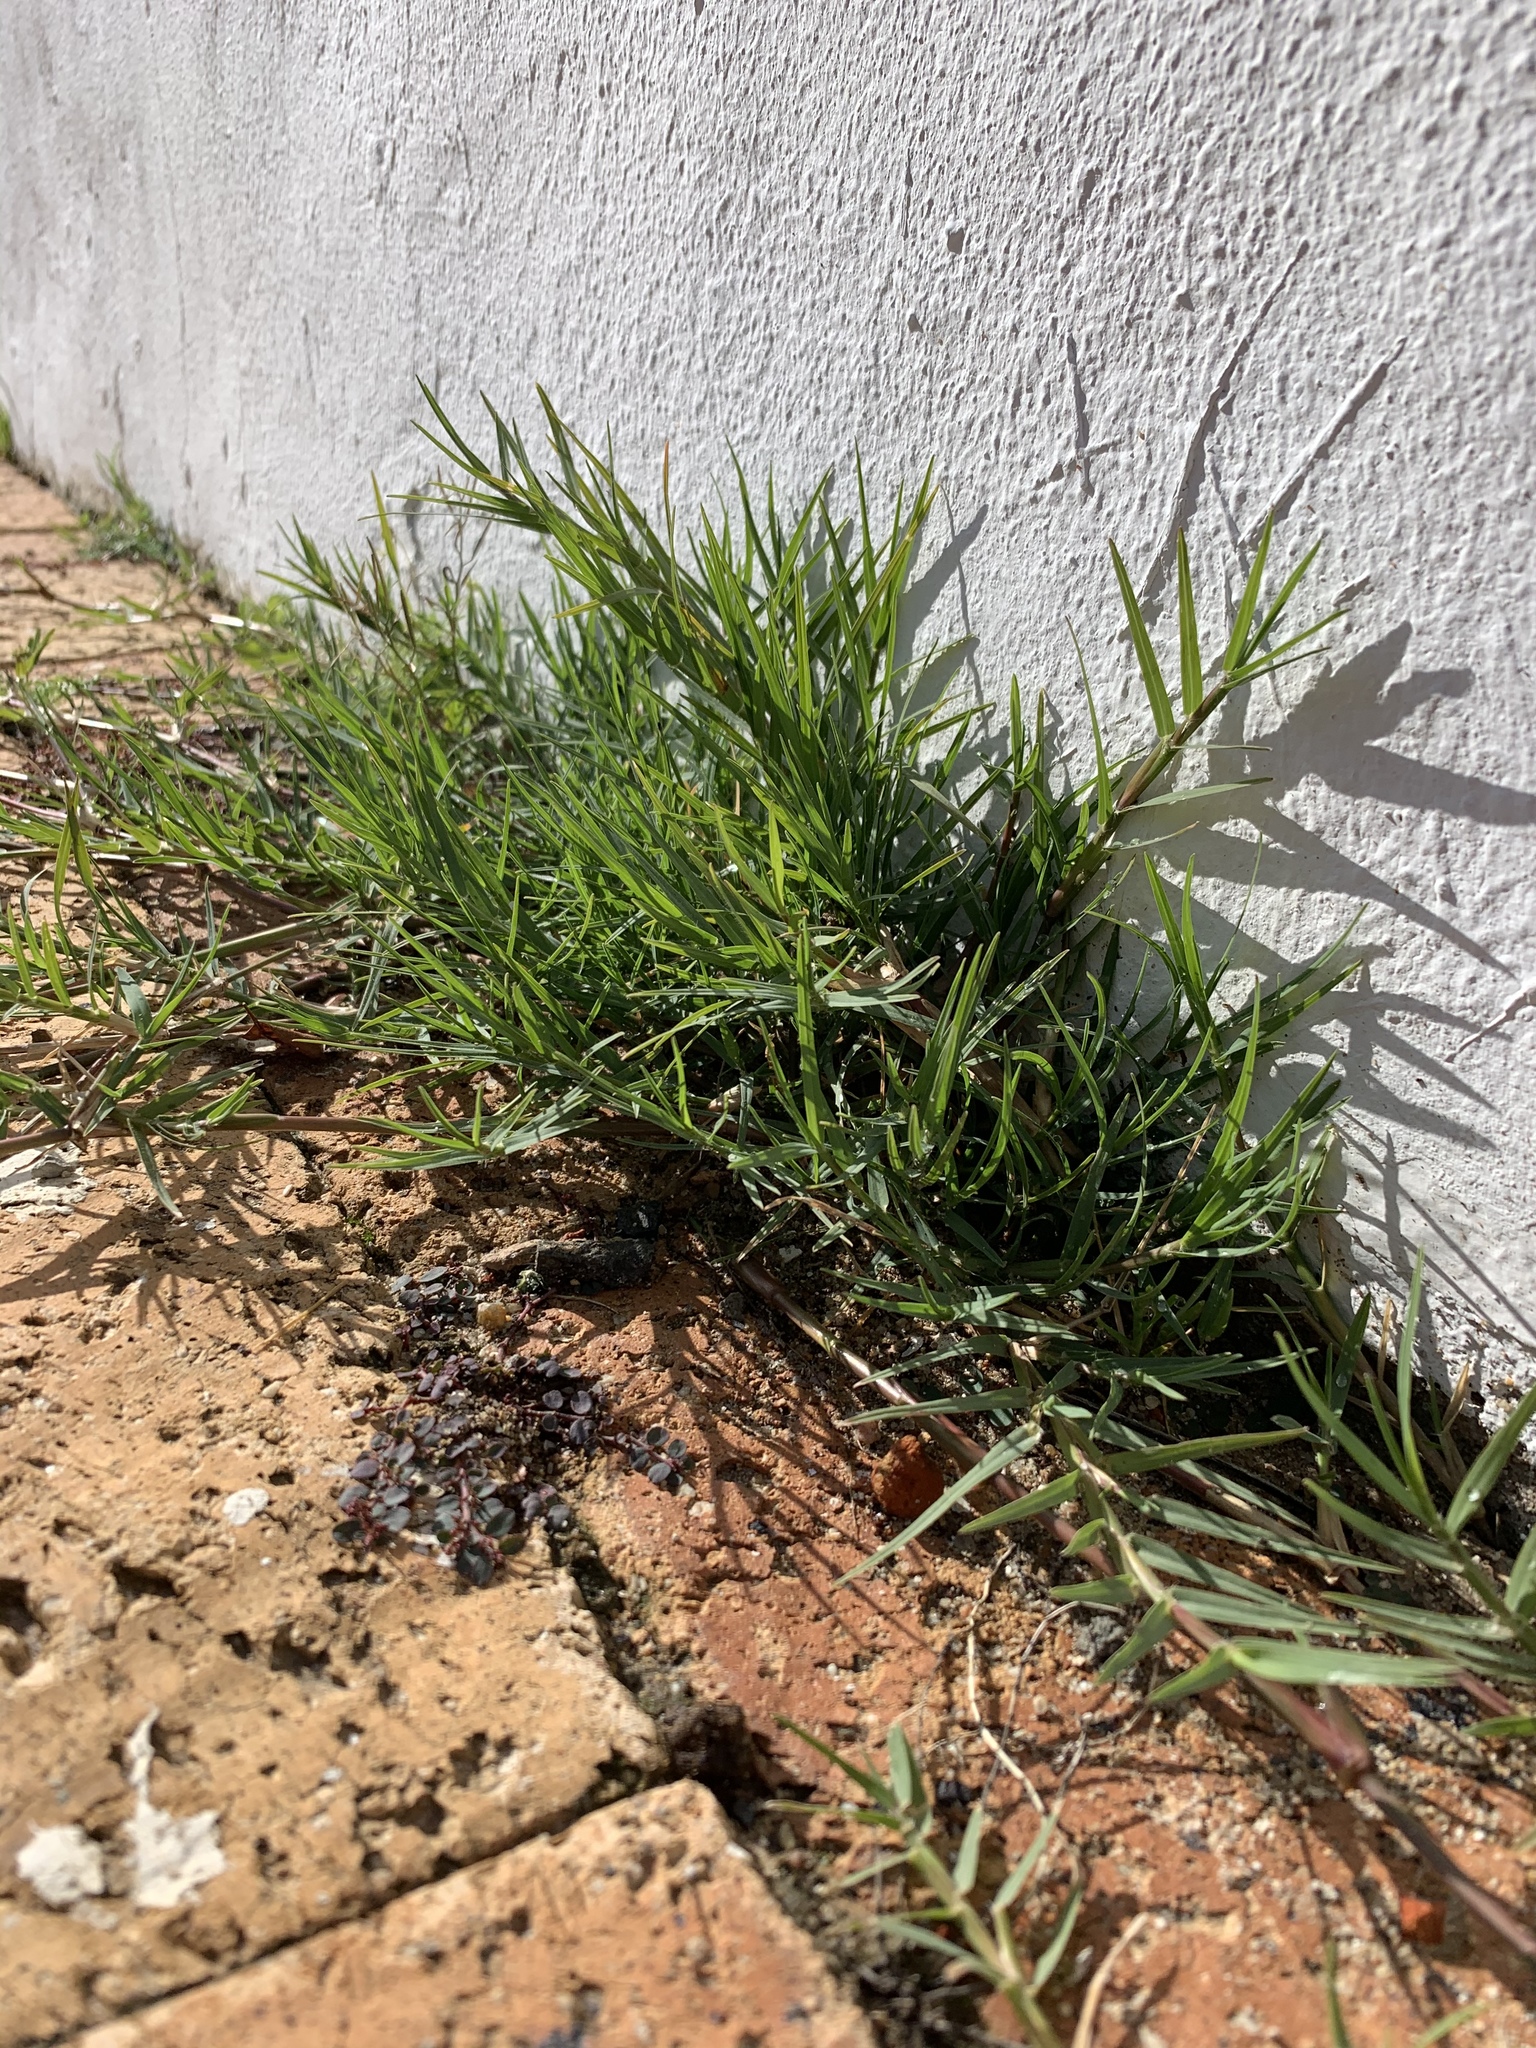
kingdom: Plantae
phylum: Tracheophyta
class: Liliopsida
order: Poales
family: Poaceae
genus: Cynodon
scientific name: Cynodon dactylon
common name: Bermuda grass
